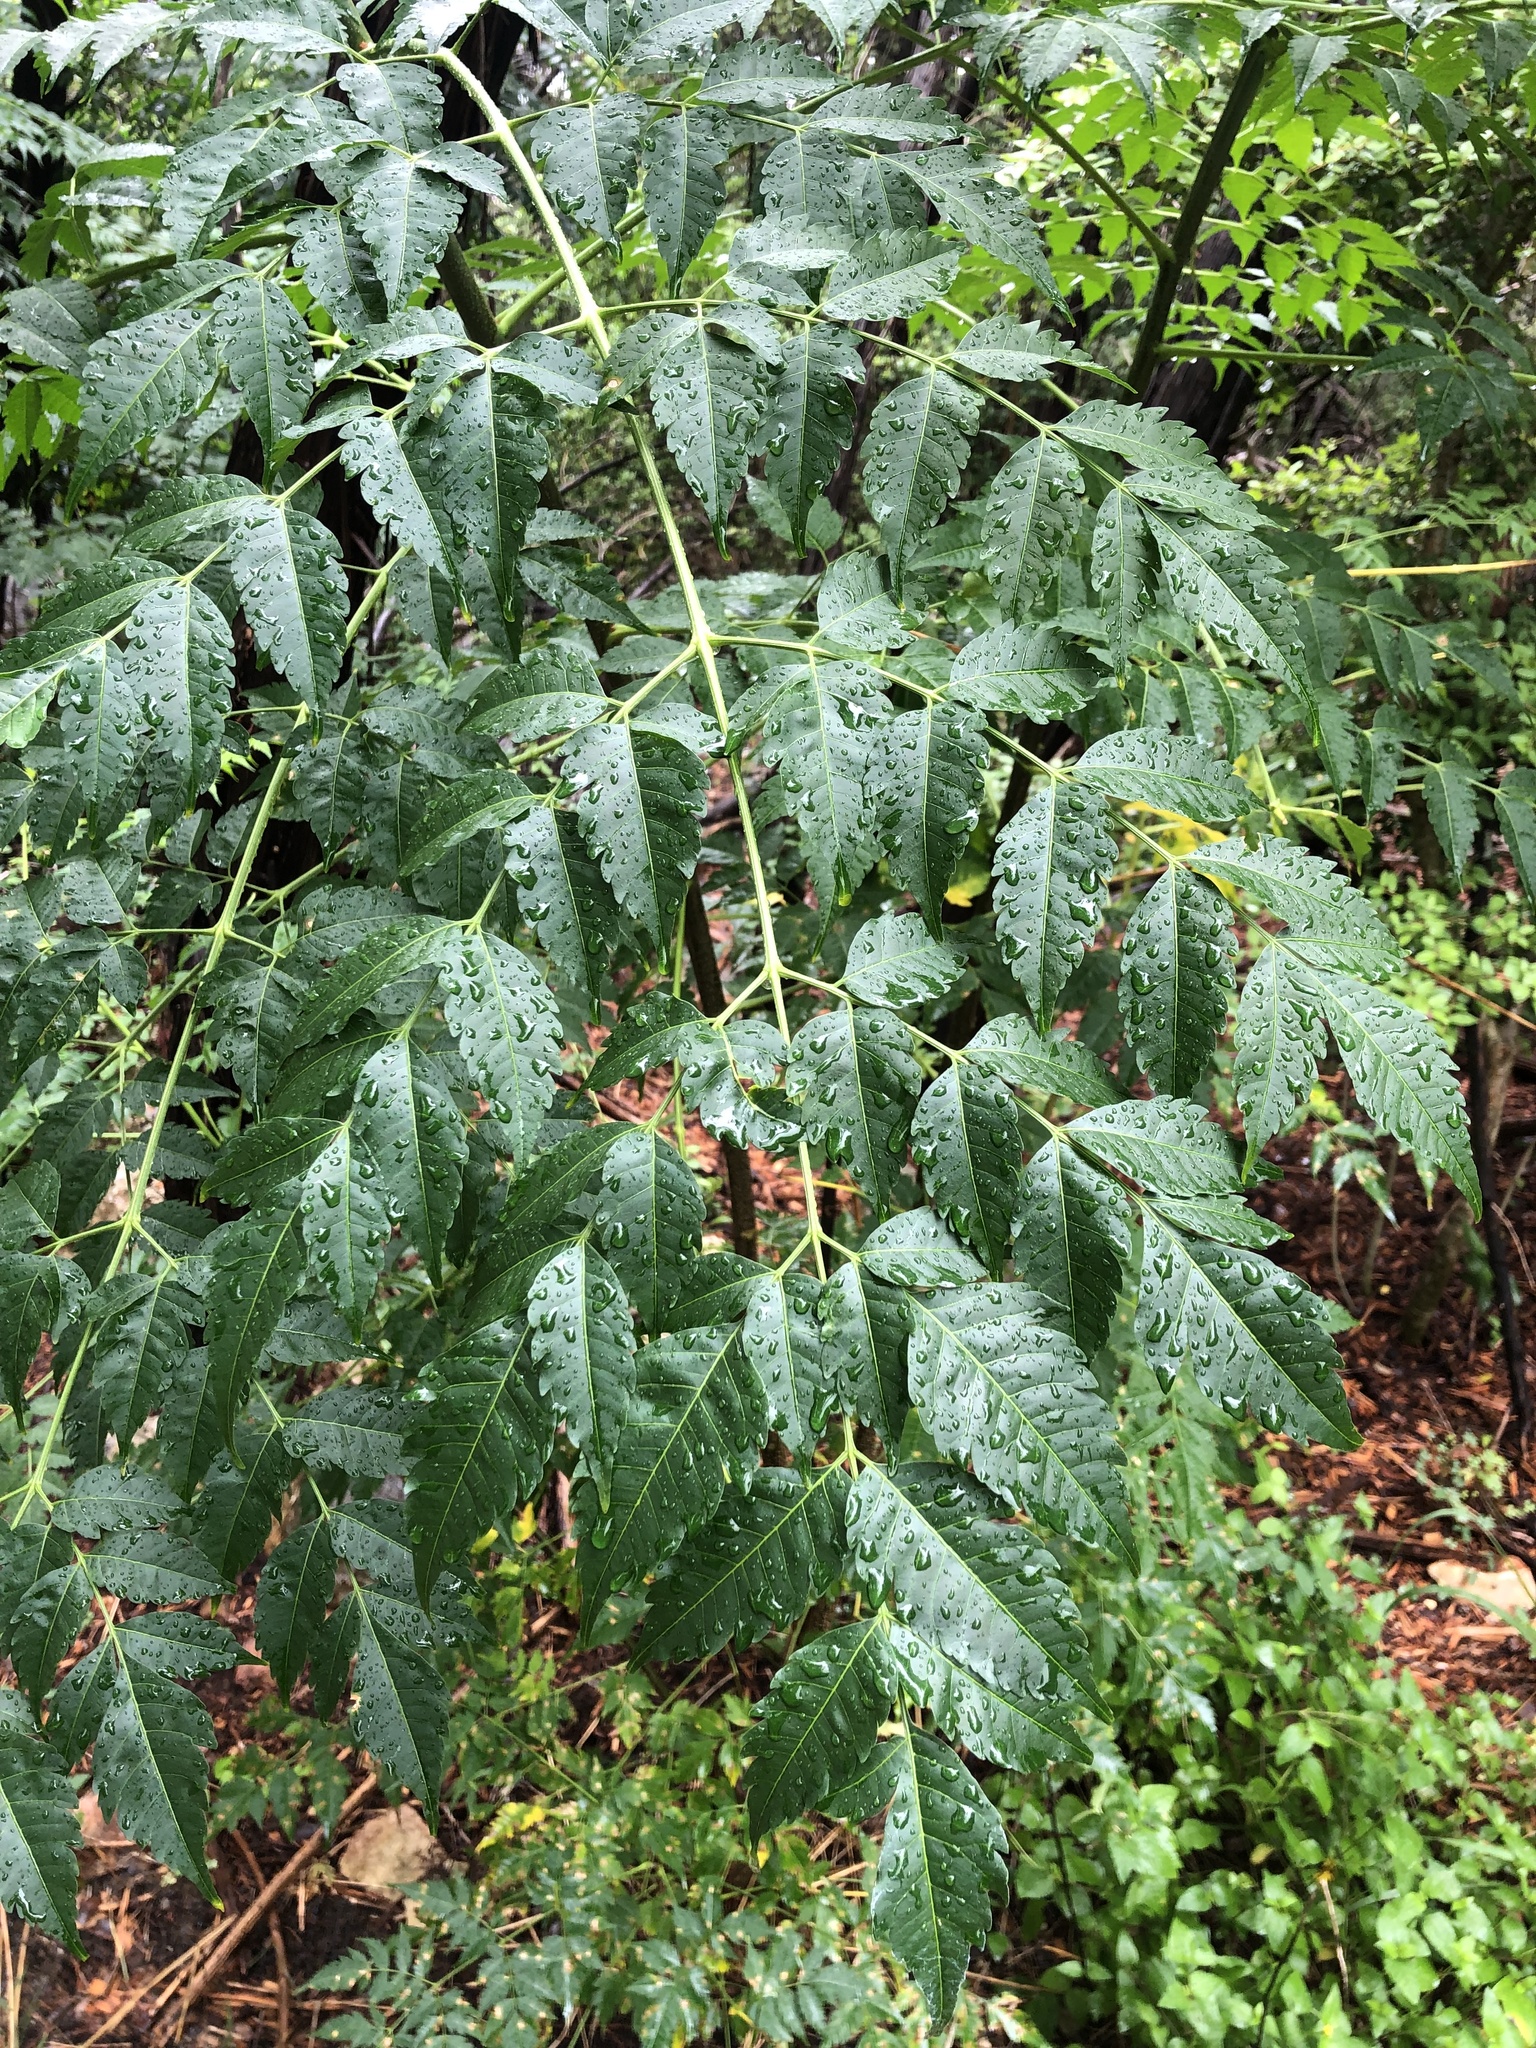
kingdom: Plantae
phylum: Tracheophyta
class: Magnoliopsida
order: Sapindales
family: Meliaceae
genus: Melia
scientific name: Melia azedarach
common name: Chinaberrytree
